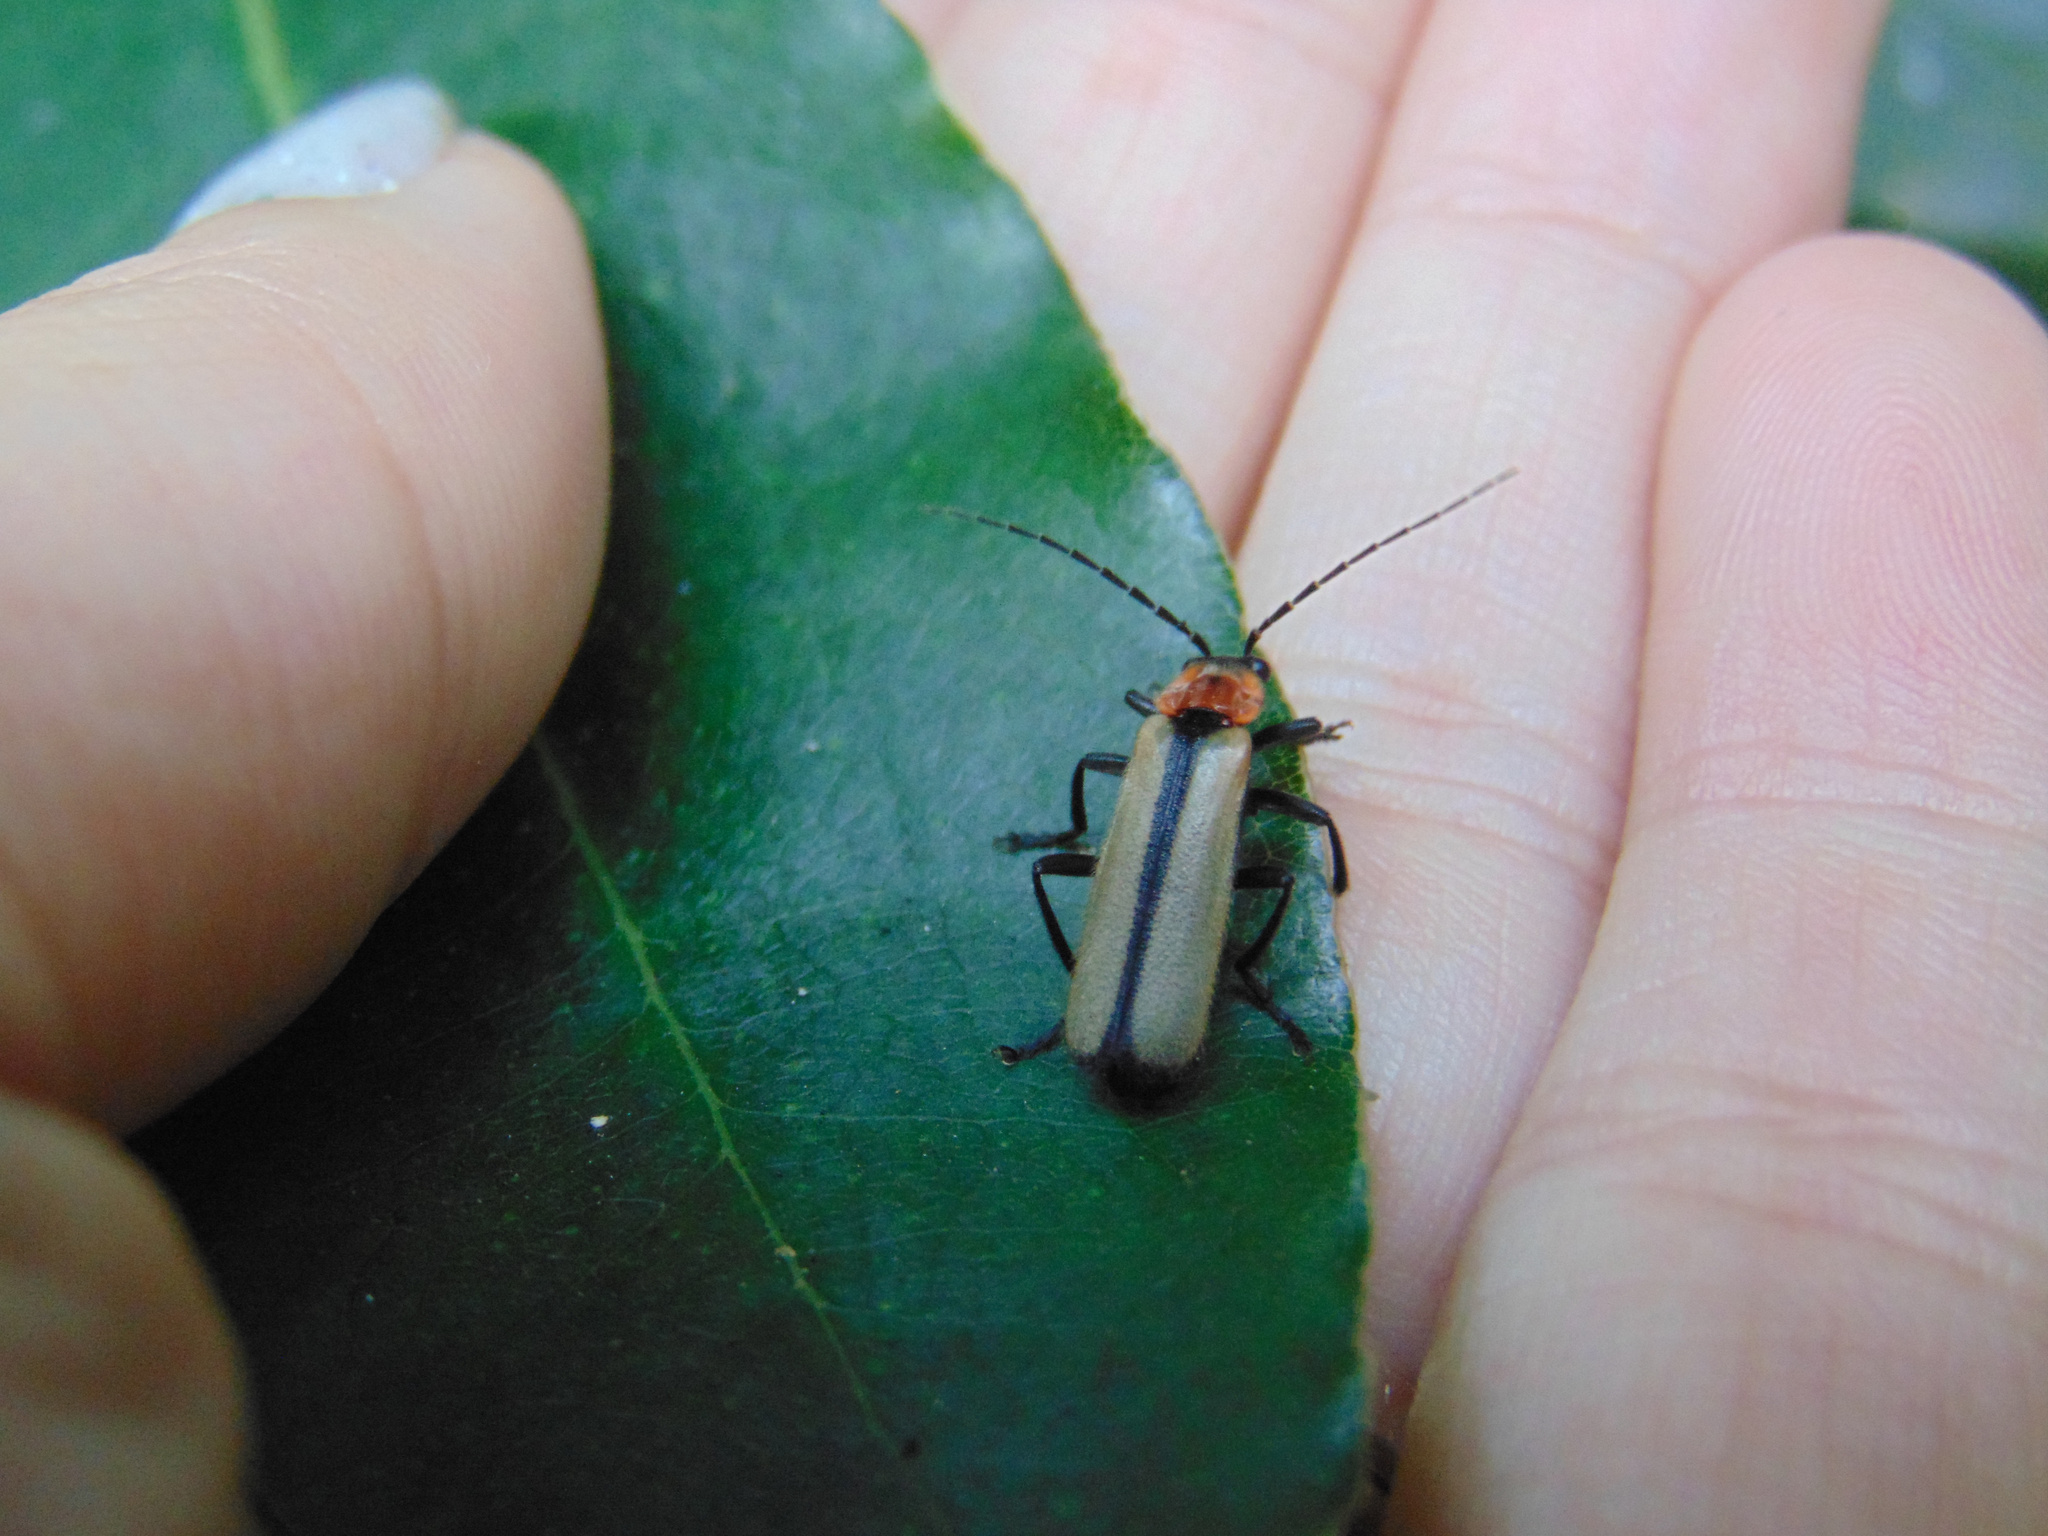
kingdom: Animalia
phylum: Arthropoda
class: Insecta
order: Coleoptera
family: Cantharidae
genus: Discodon
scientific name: Discodon
